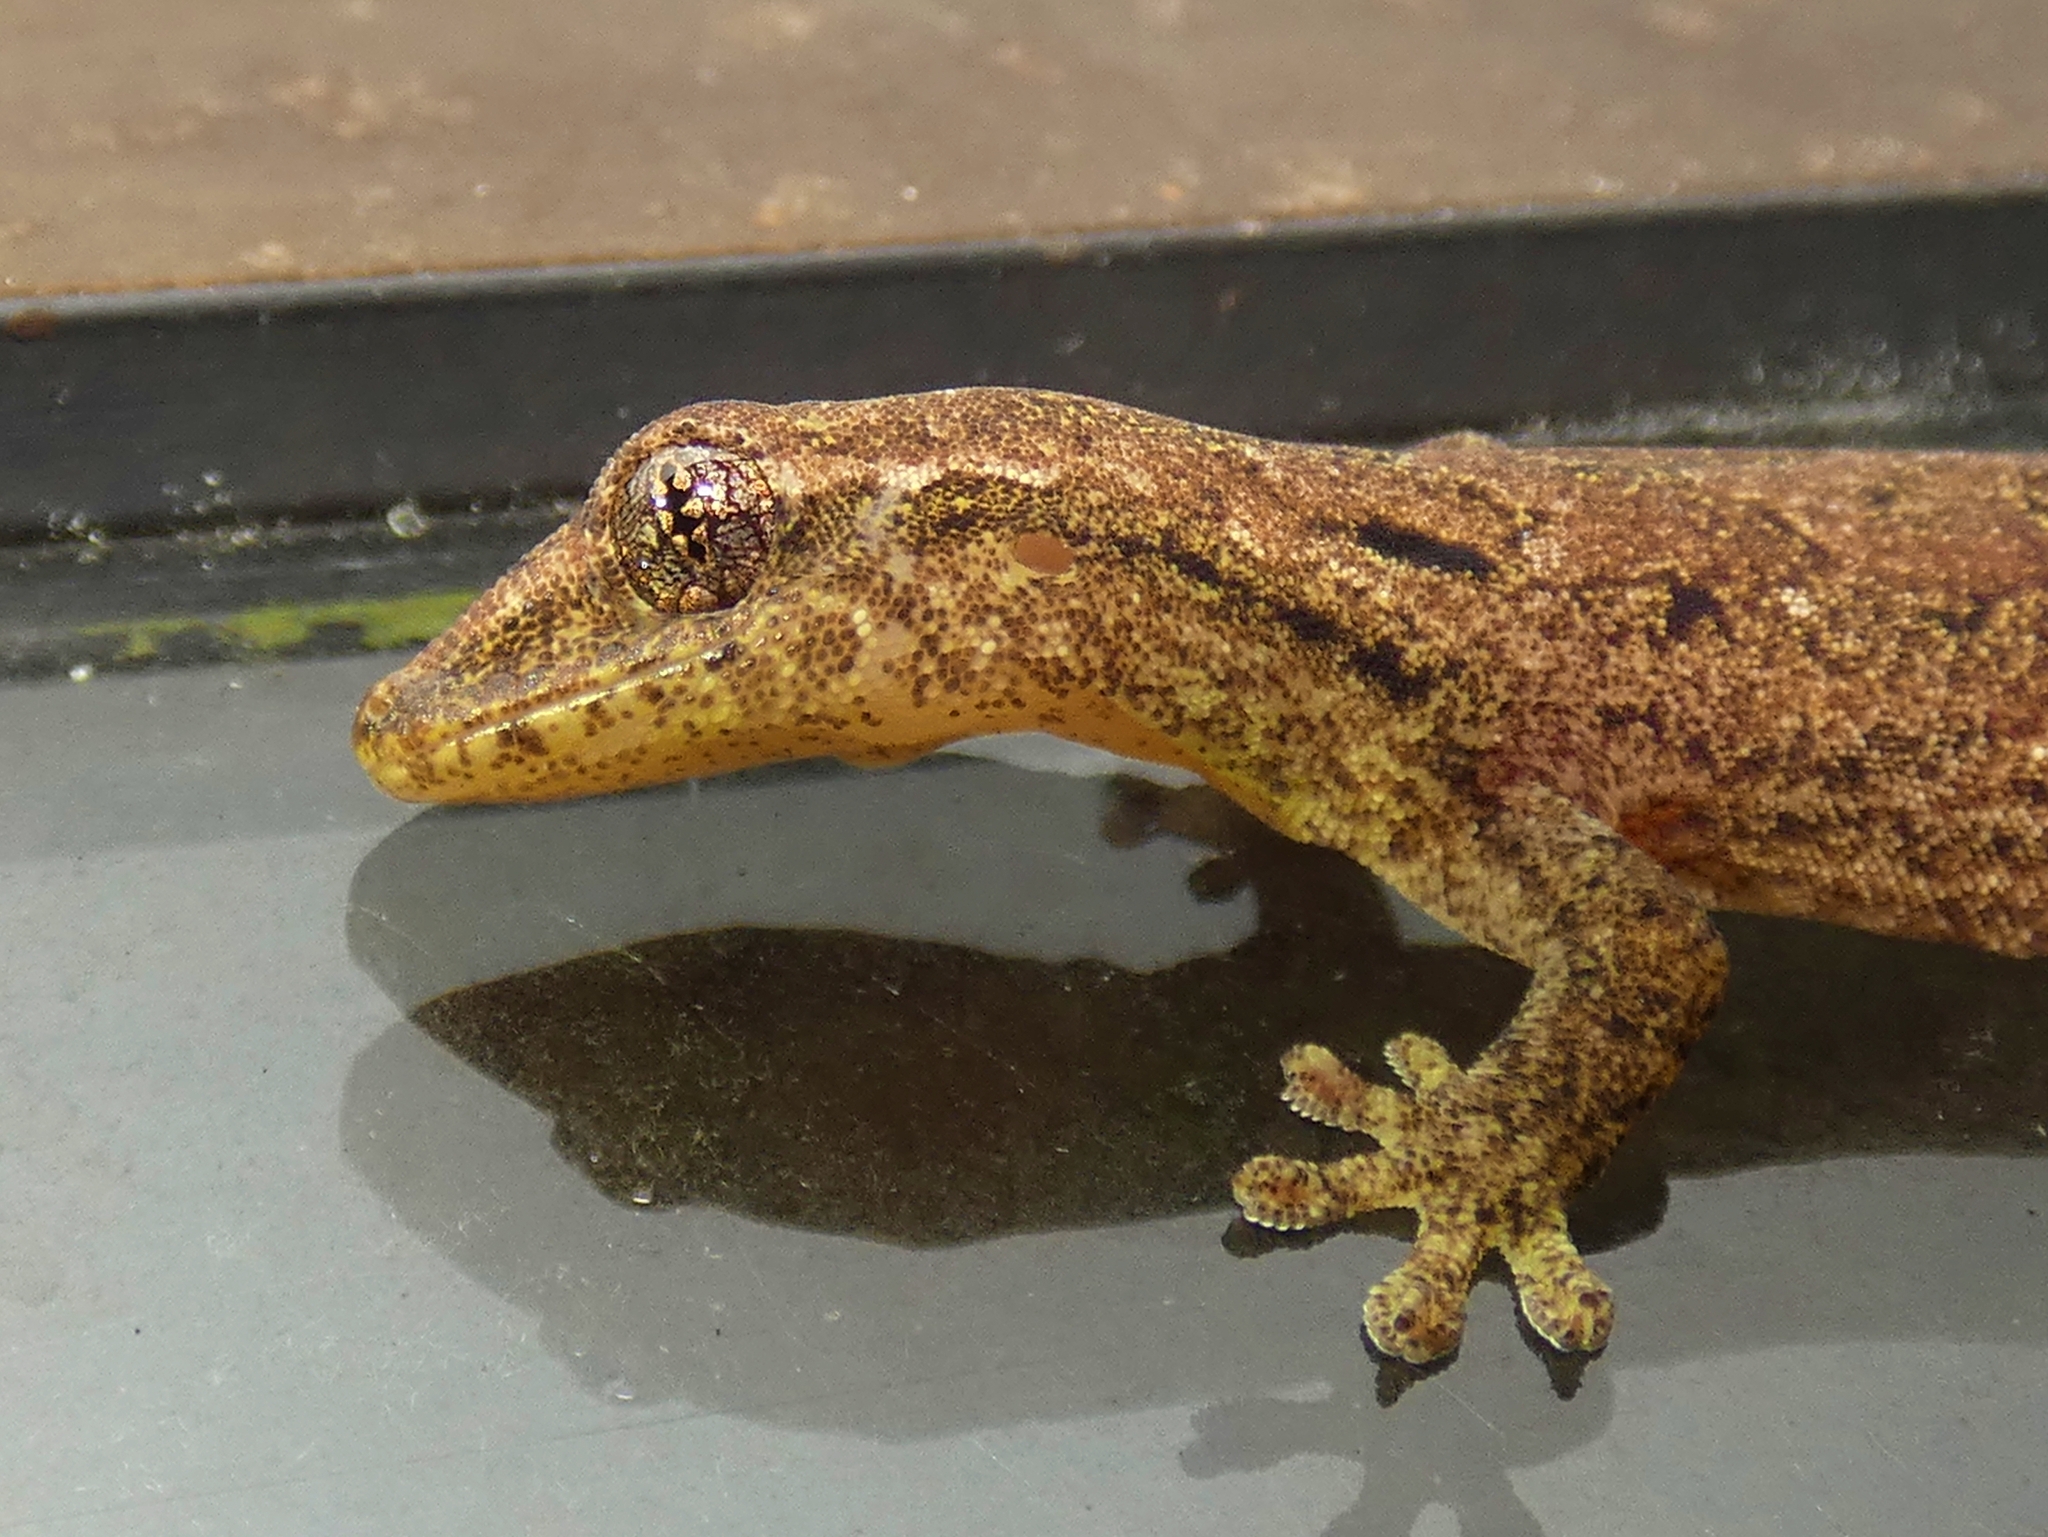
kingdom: Animalia
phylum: Chordata
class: Squamata
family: Gekkonidae
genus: Lepidodactylus
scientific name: Lepidodactylus lugubris
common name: Mourning gecko
